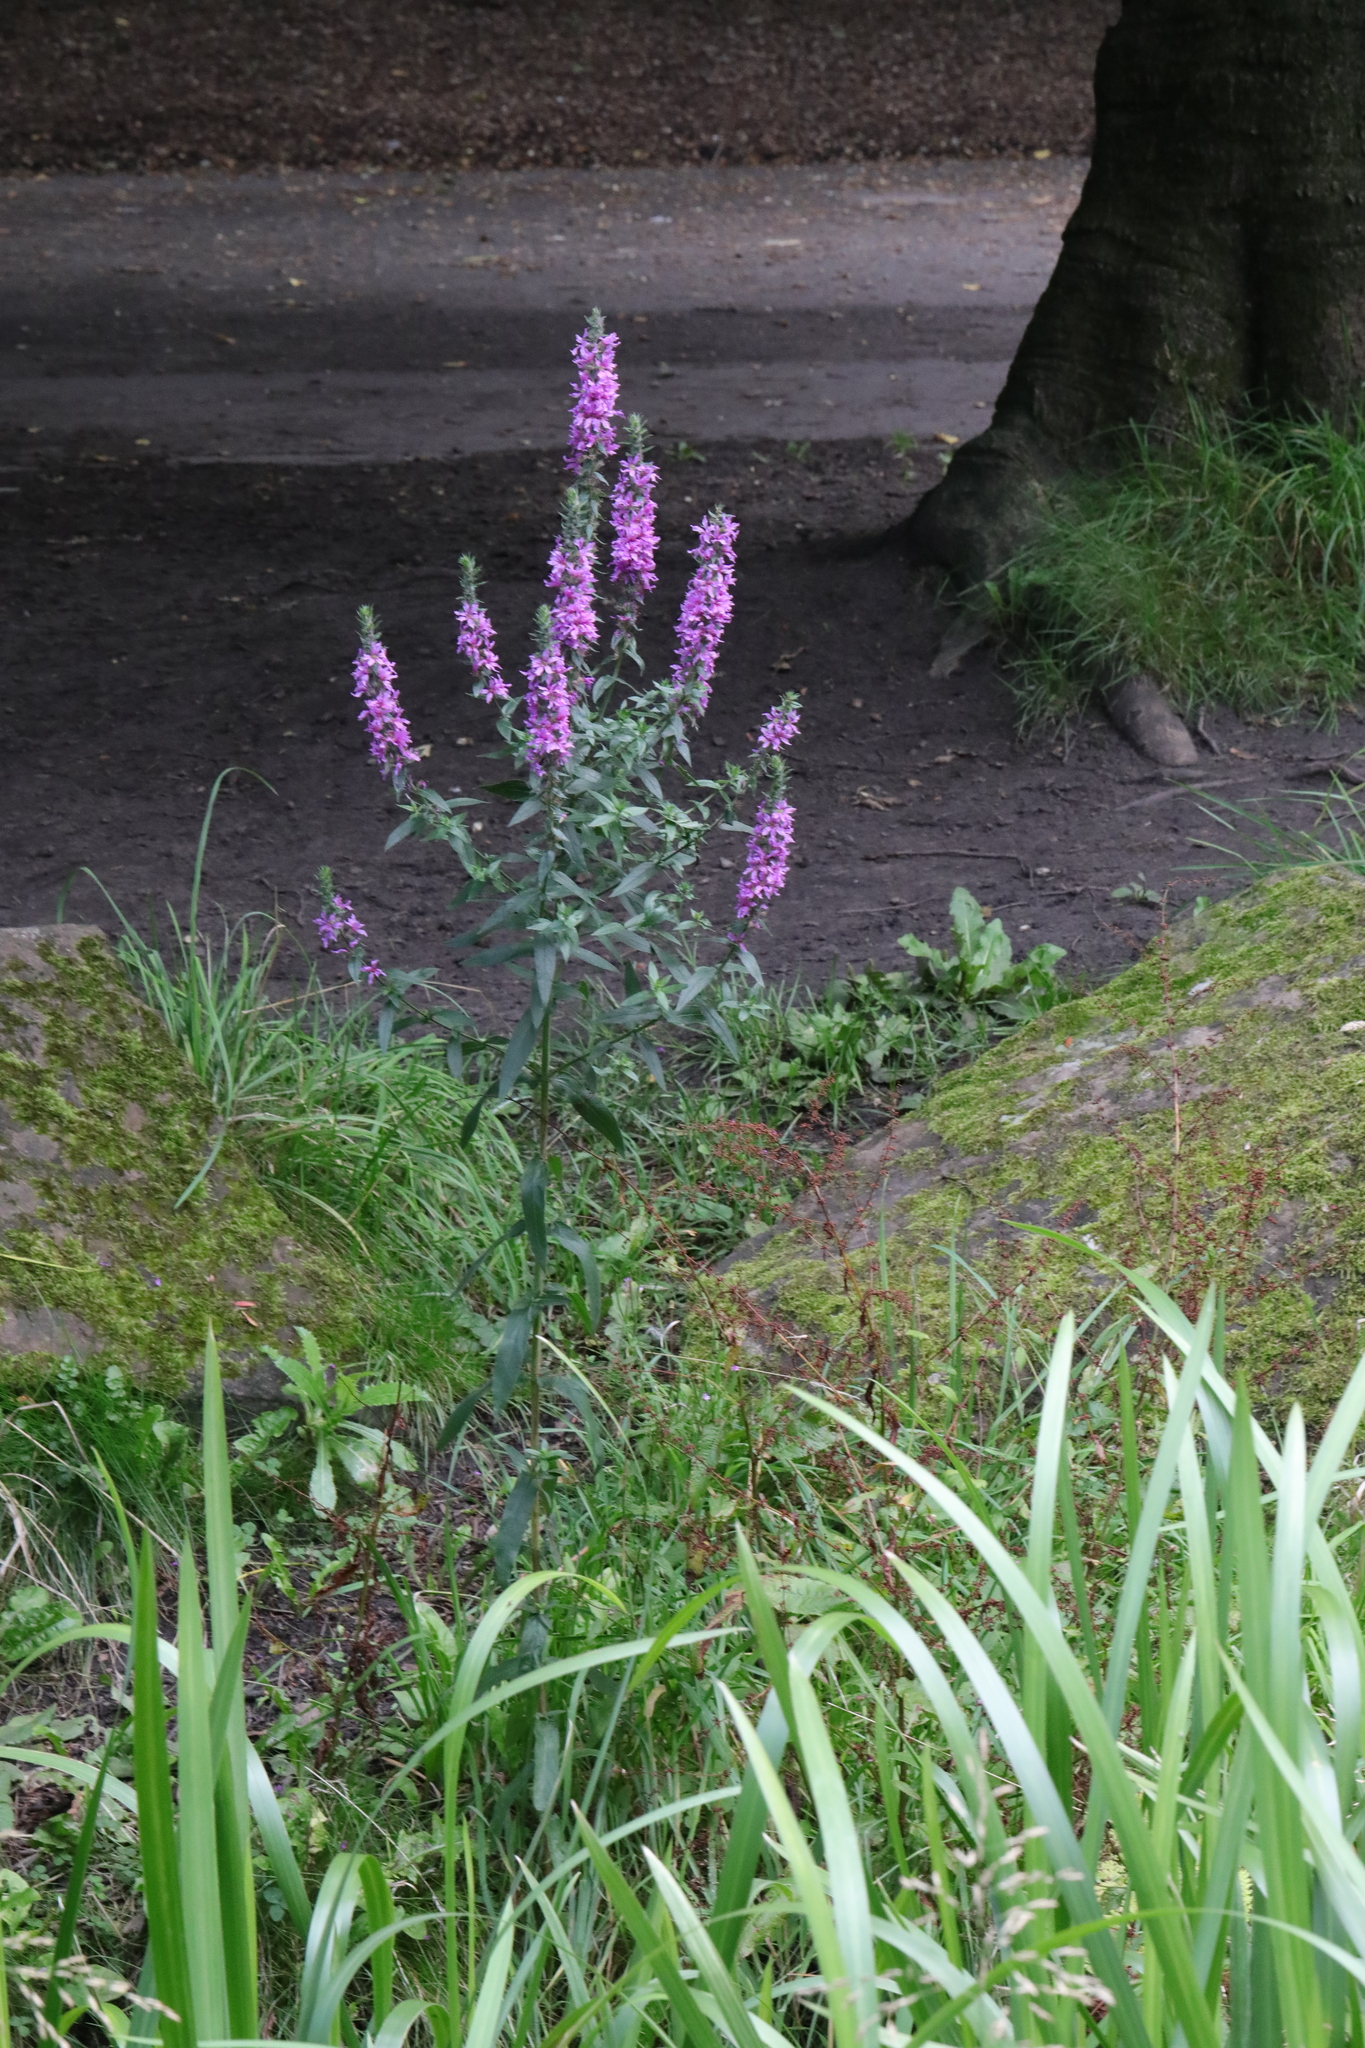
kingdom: Plantae
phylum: Tracheophyta
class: Magnoliopsida
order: Myrtales
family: Lythraceae
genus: Lythrum
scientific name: Lythrum salicaria
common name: Purple loosestrife
